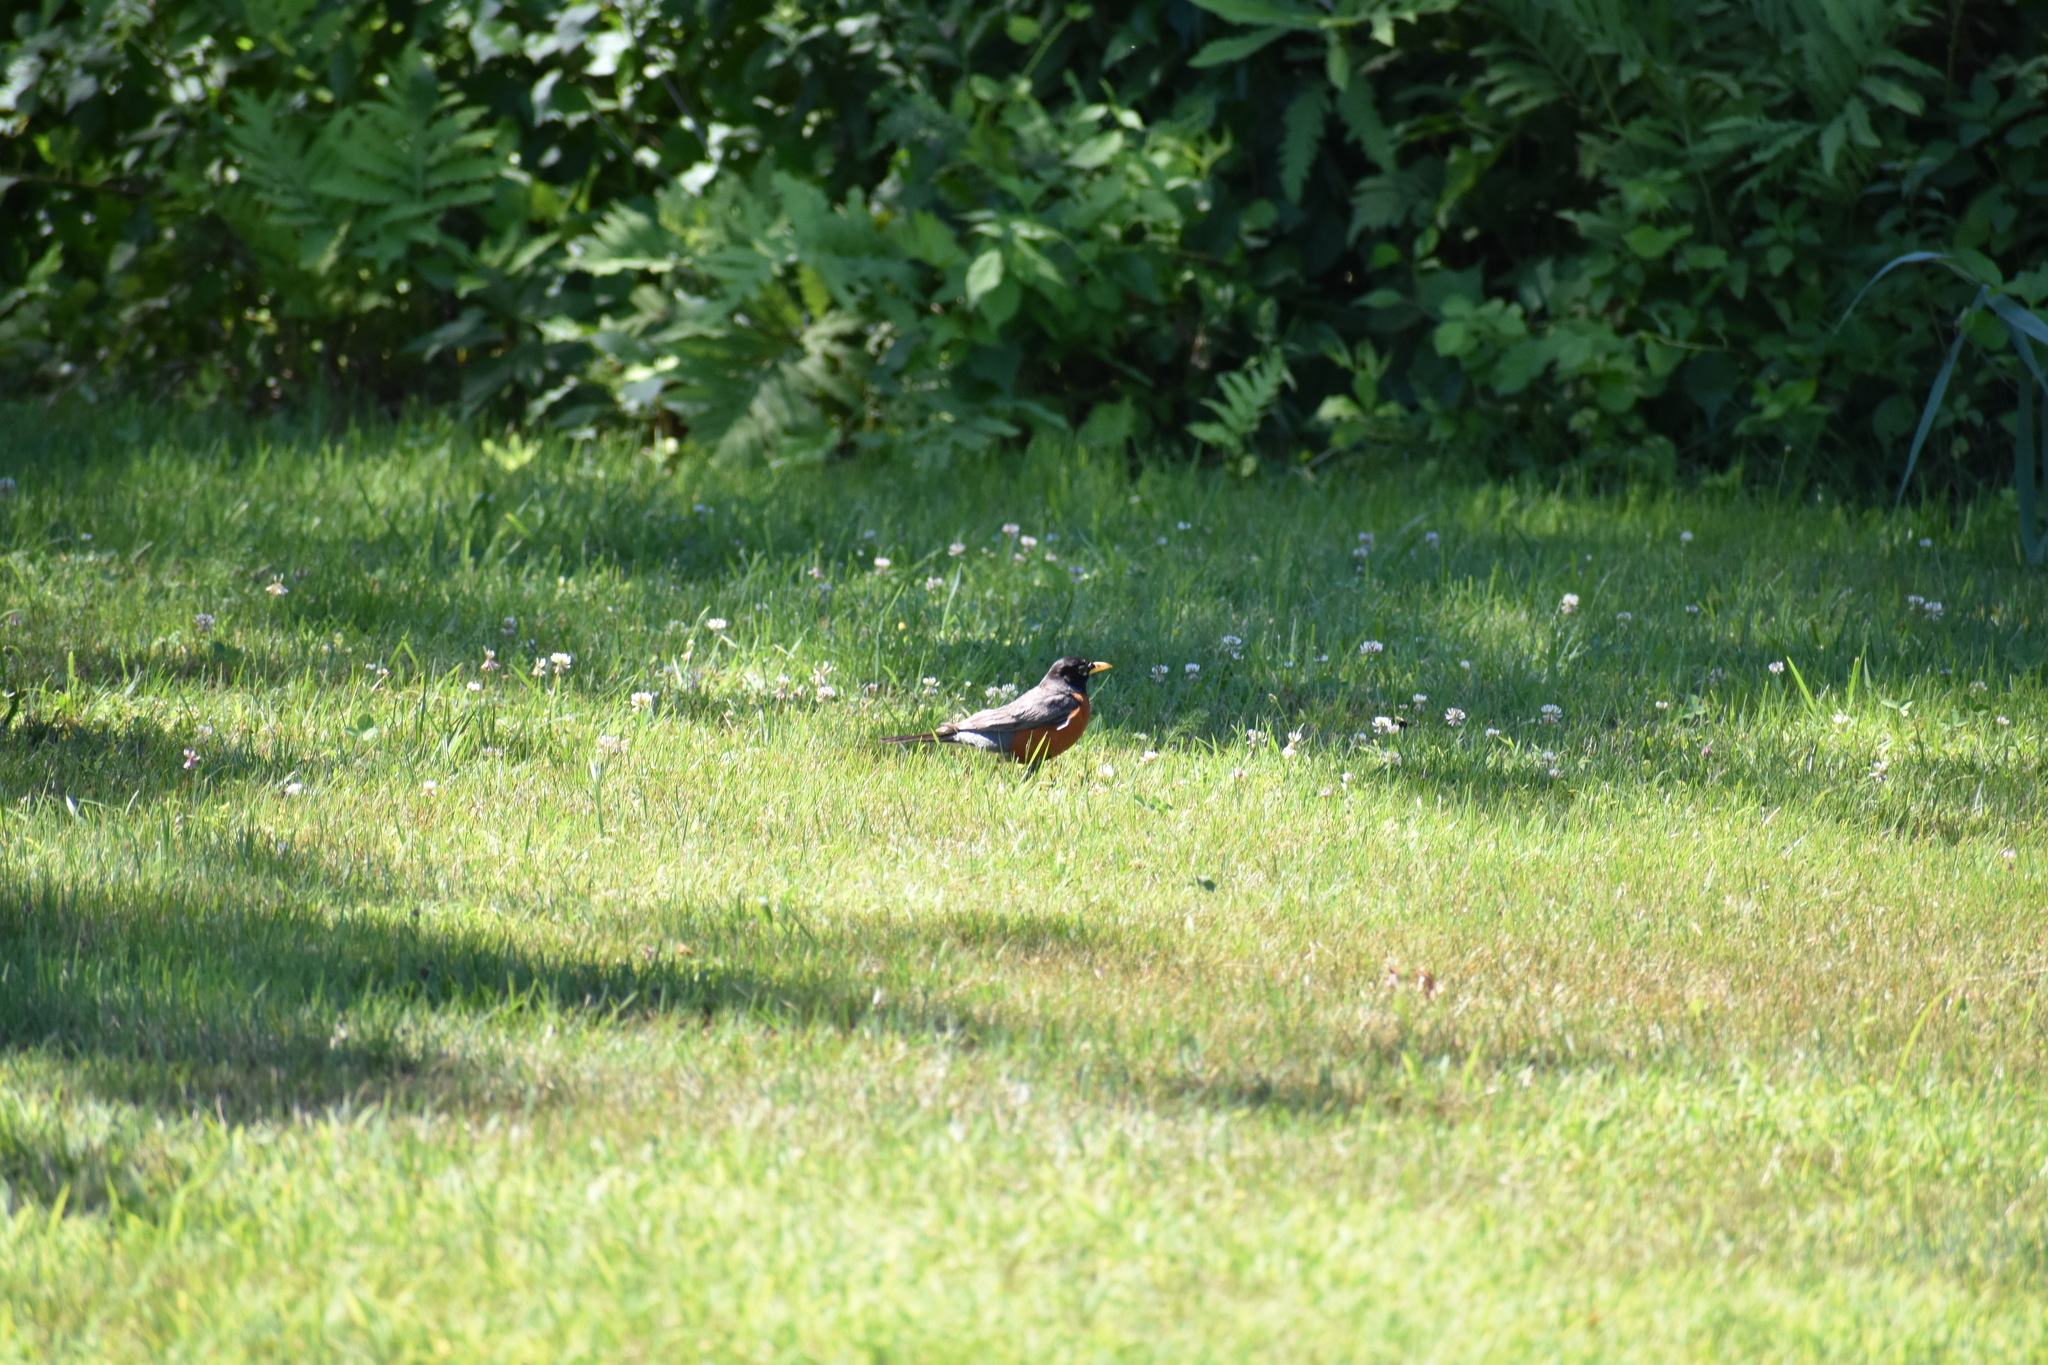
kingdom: Animalia
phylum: Chordata
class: Aves
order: Passeriformes
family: Turdidae
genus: Turdus
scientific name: Turdus migratorius
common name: American robin
